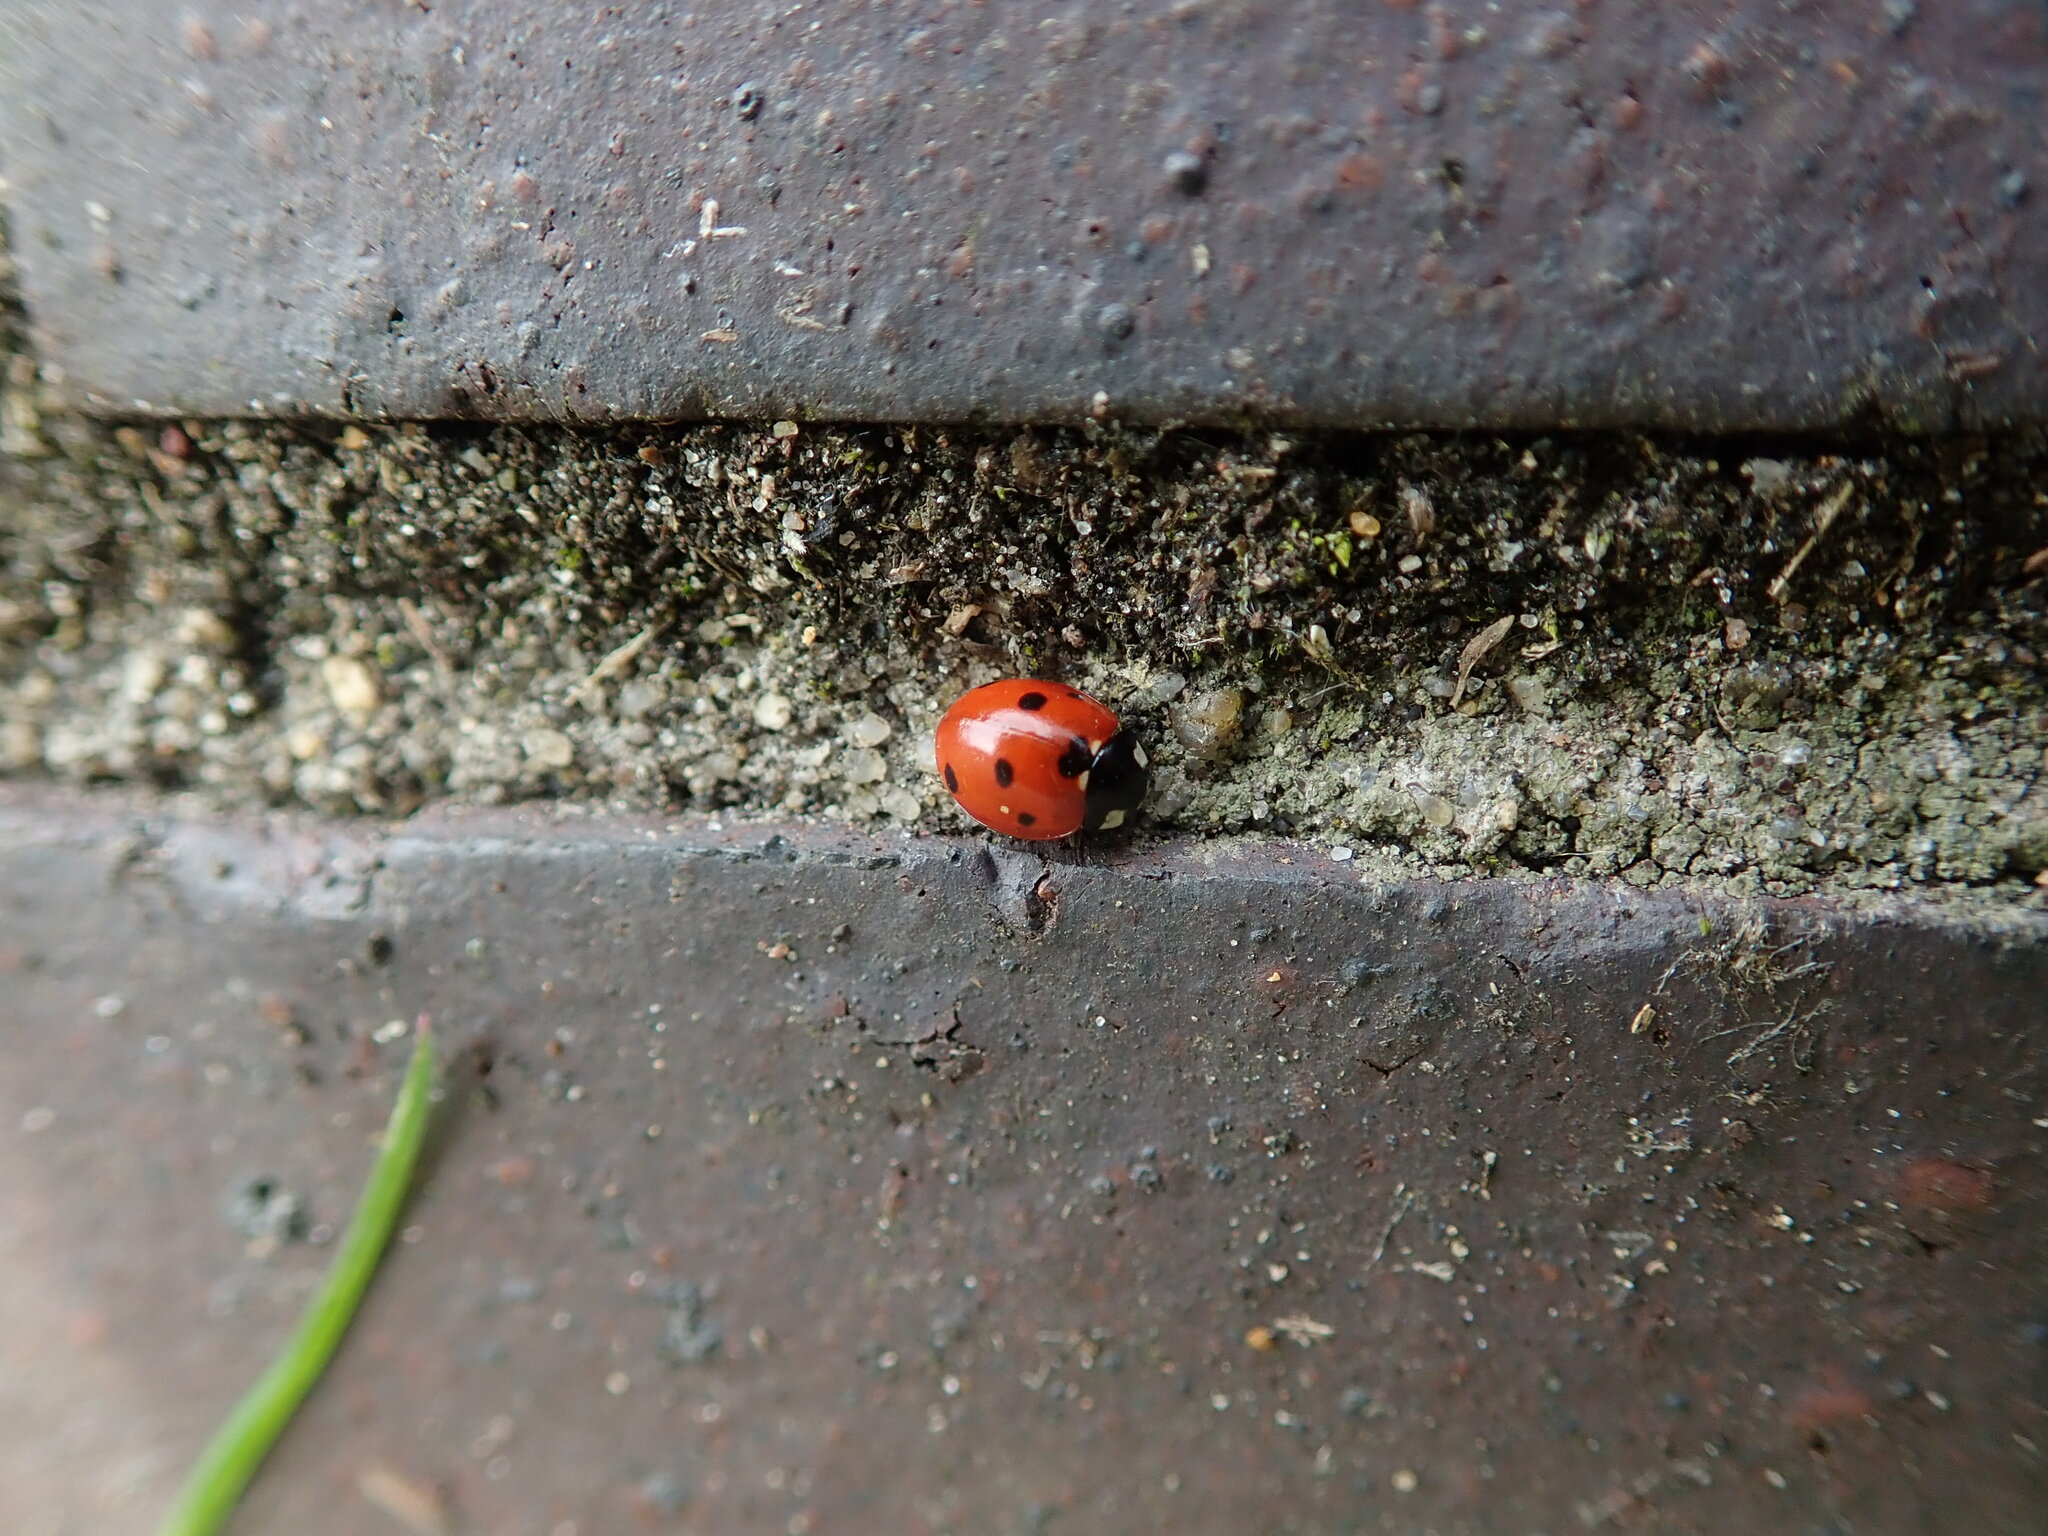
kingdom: Animalia
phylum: Arthropoda
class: Insecta
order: Coleoptera
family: Coccinellidae
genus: Coccinella
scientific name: Coccinella septempunctata
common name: Sevenspotted lady beetle
